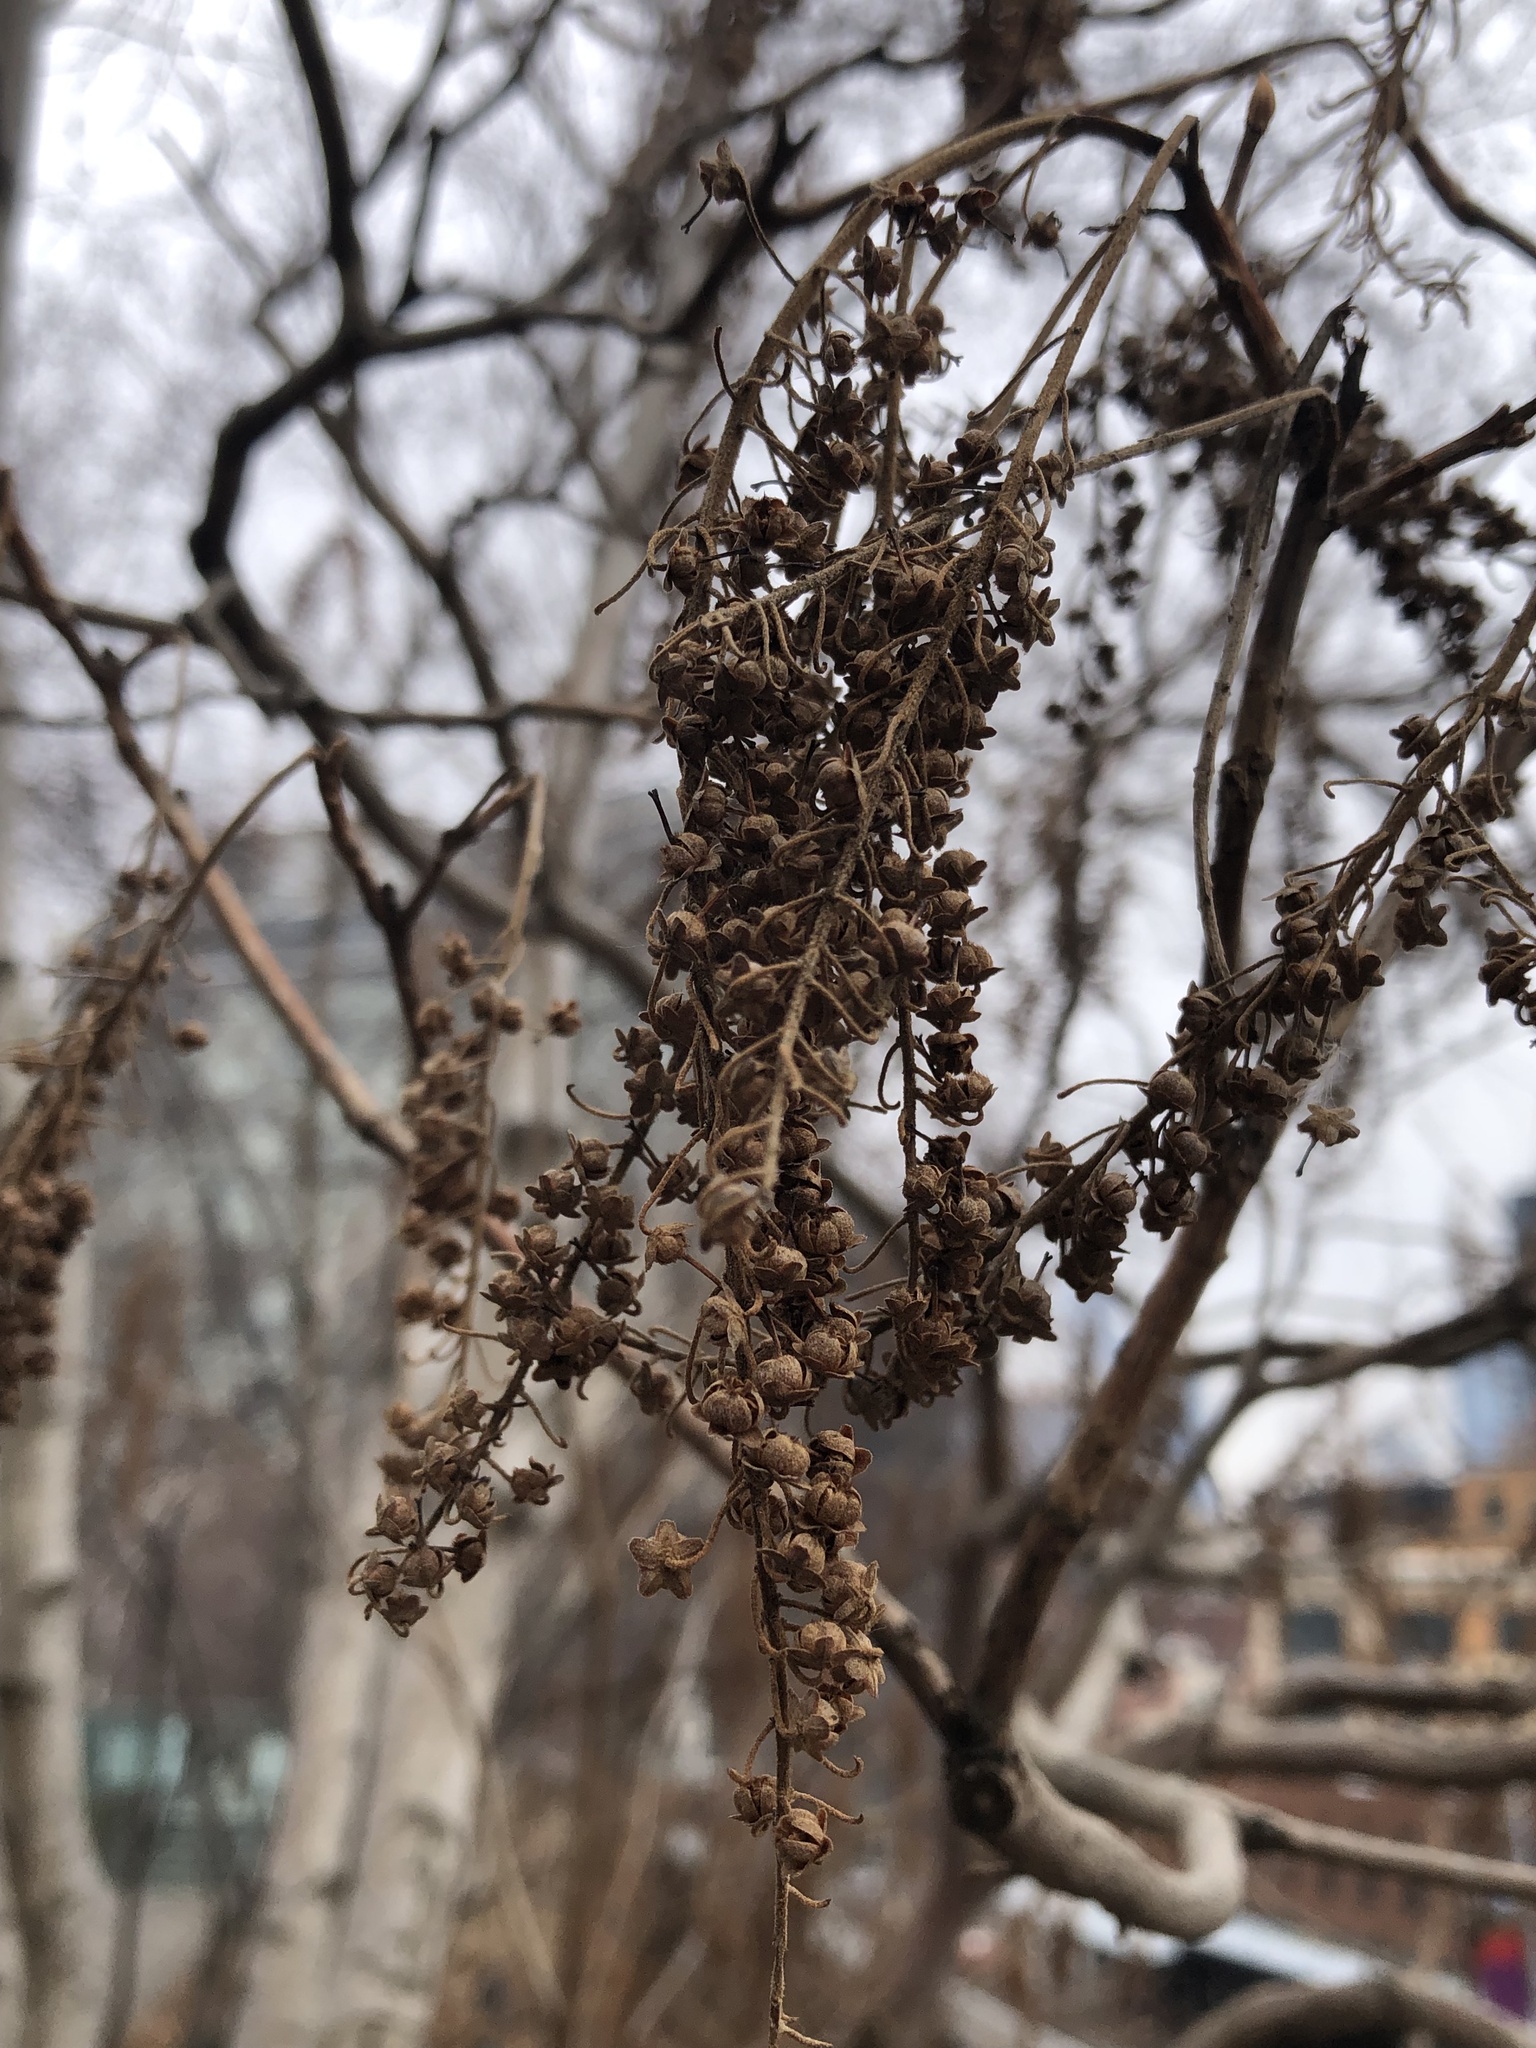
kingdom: Plantae
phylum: Tracheophyta
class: Magnoliopsida
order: Ericales
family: Clethraceae
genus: Clethra
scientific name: Clethra alnifolia
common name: Sweet pepperbush
